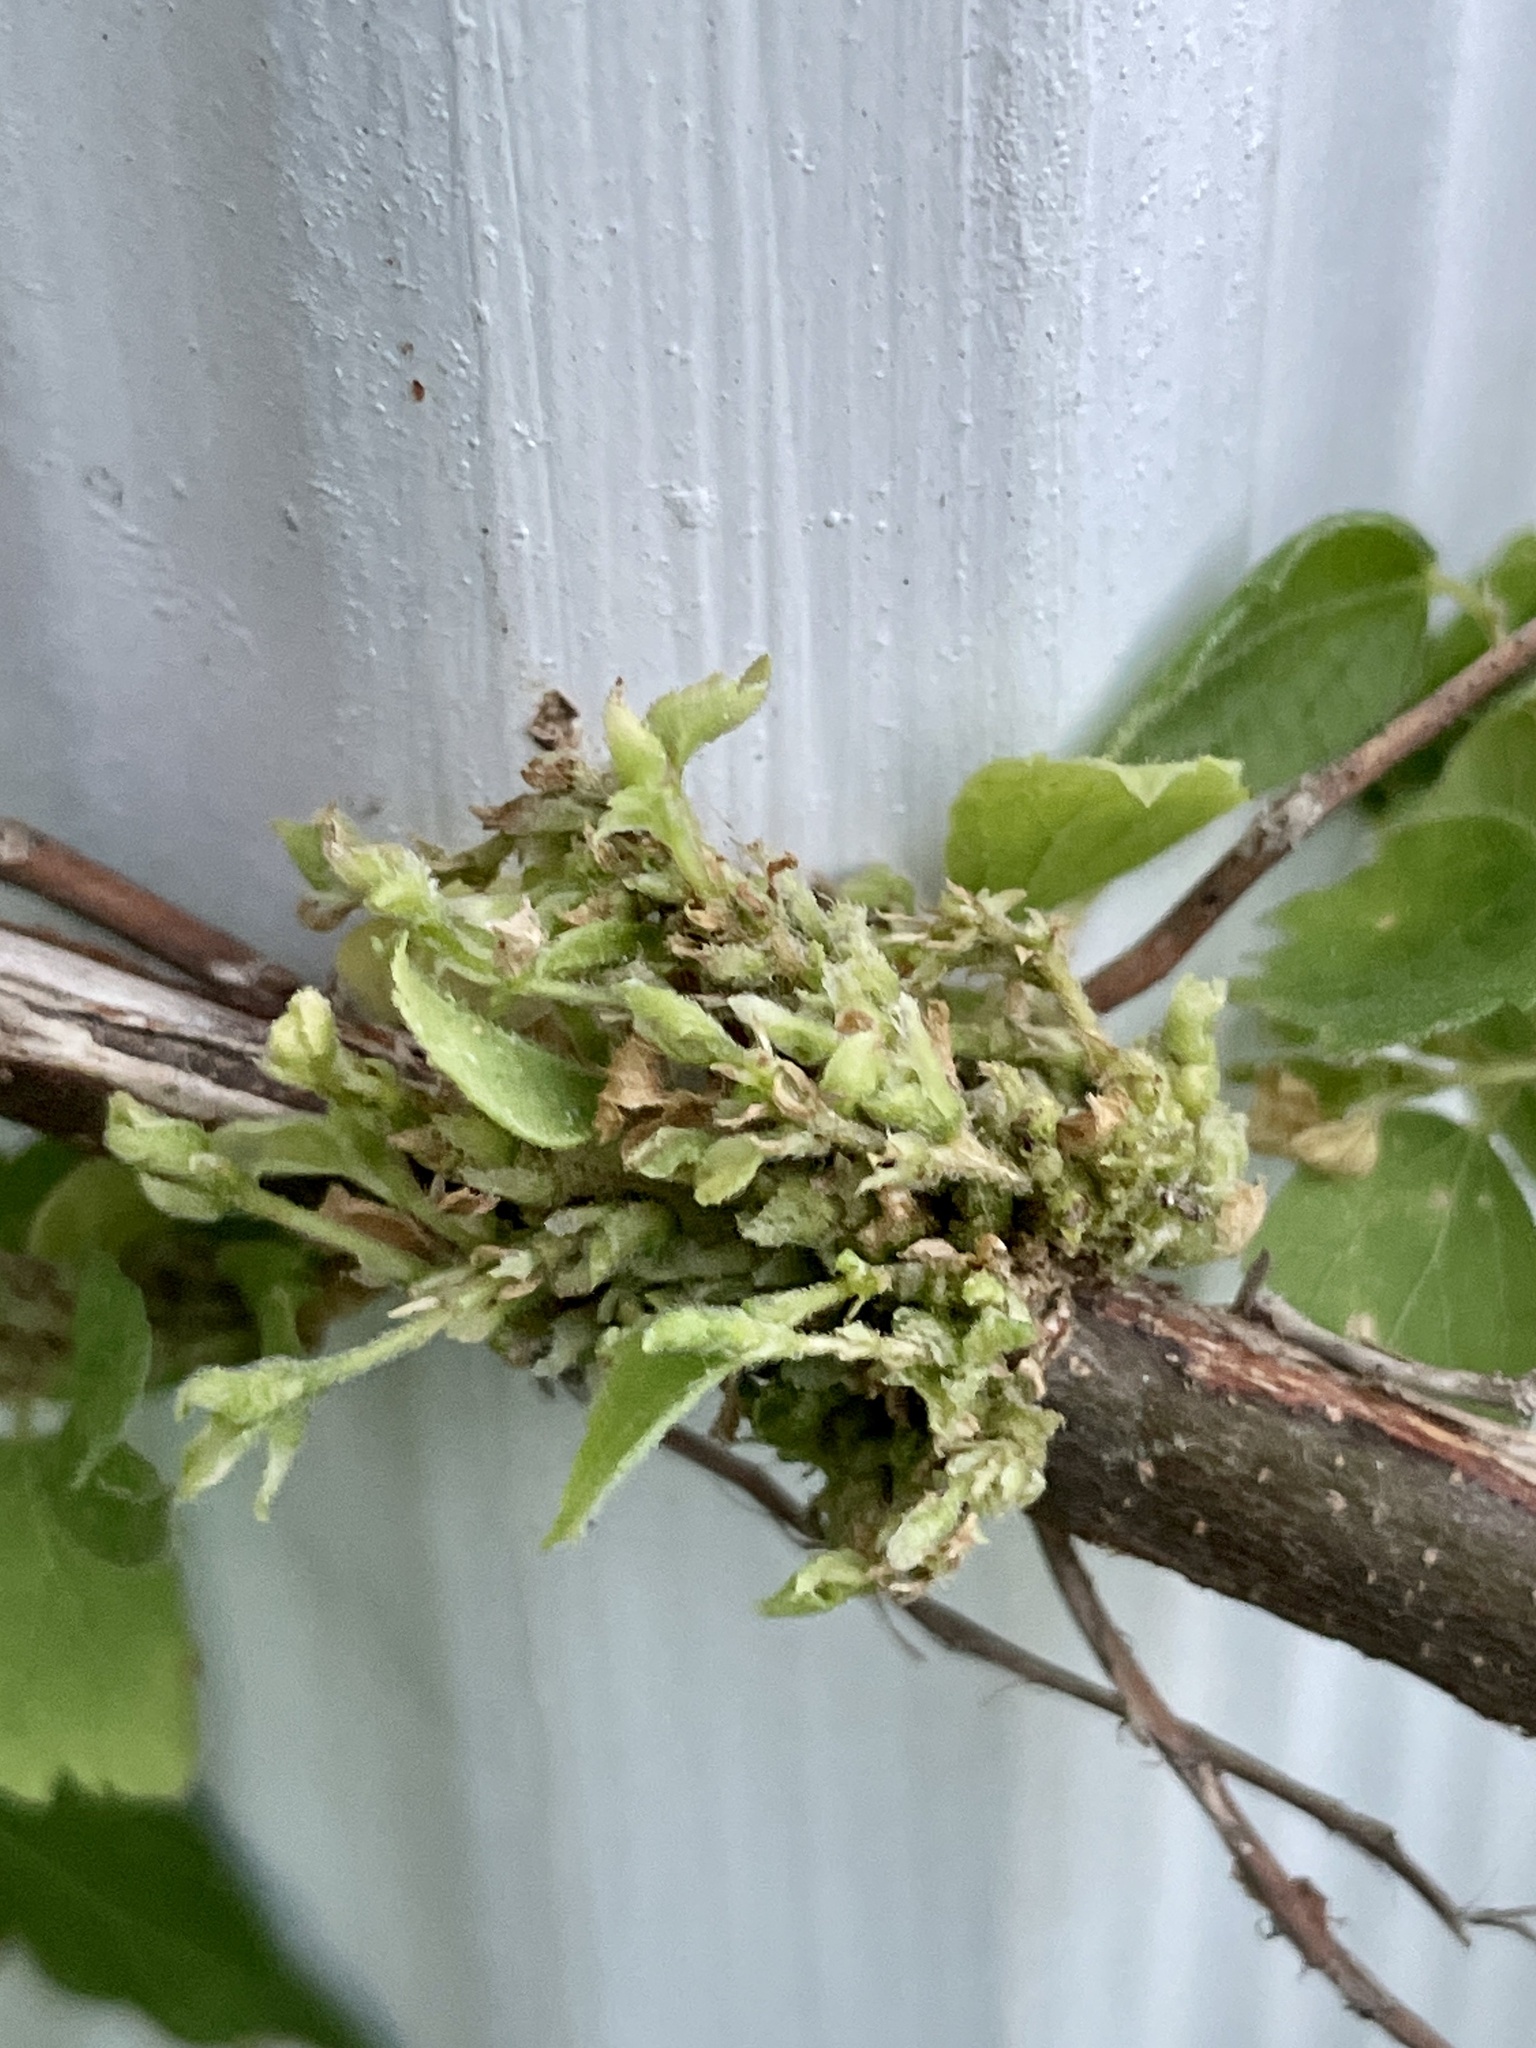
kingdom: Animalia
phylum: Arthropoda
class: Arachnida
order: Trombidiformes
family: Eriophyidae
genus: Aceria
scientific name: Aceria
